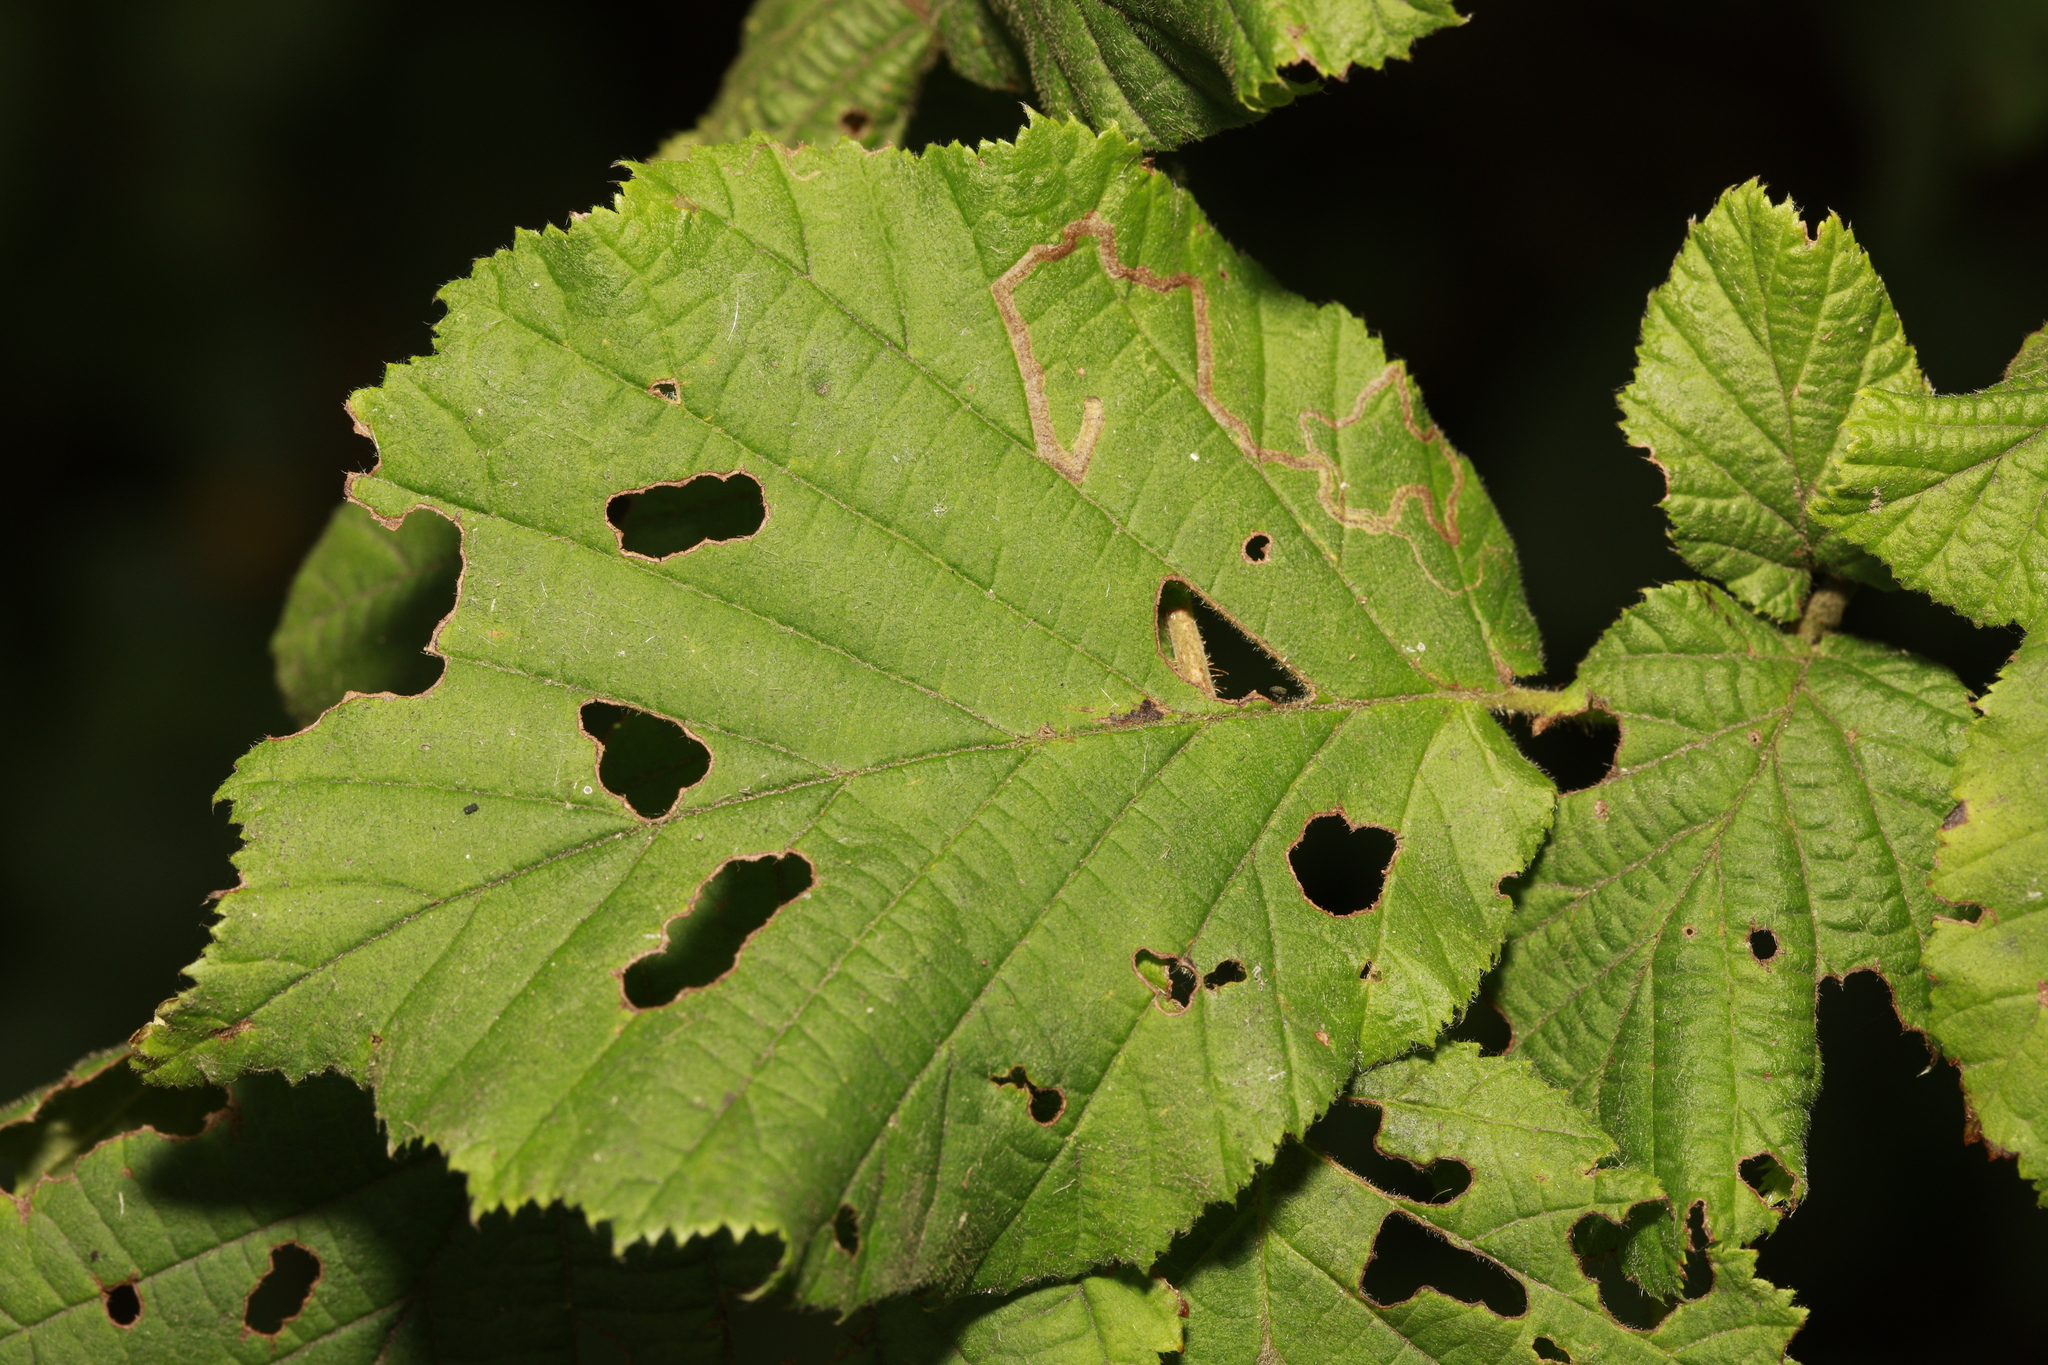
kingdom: Animalia
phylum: Arthropoda
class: Insecta
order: Lepidoptera
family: Nepticulidae
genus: Stigmella
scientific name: Stigmella microtheriella
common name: Nut-tree pigmy
